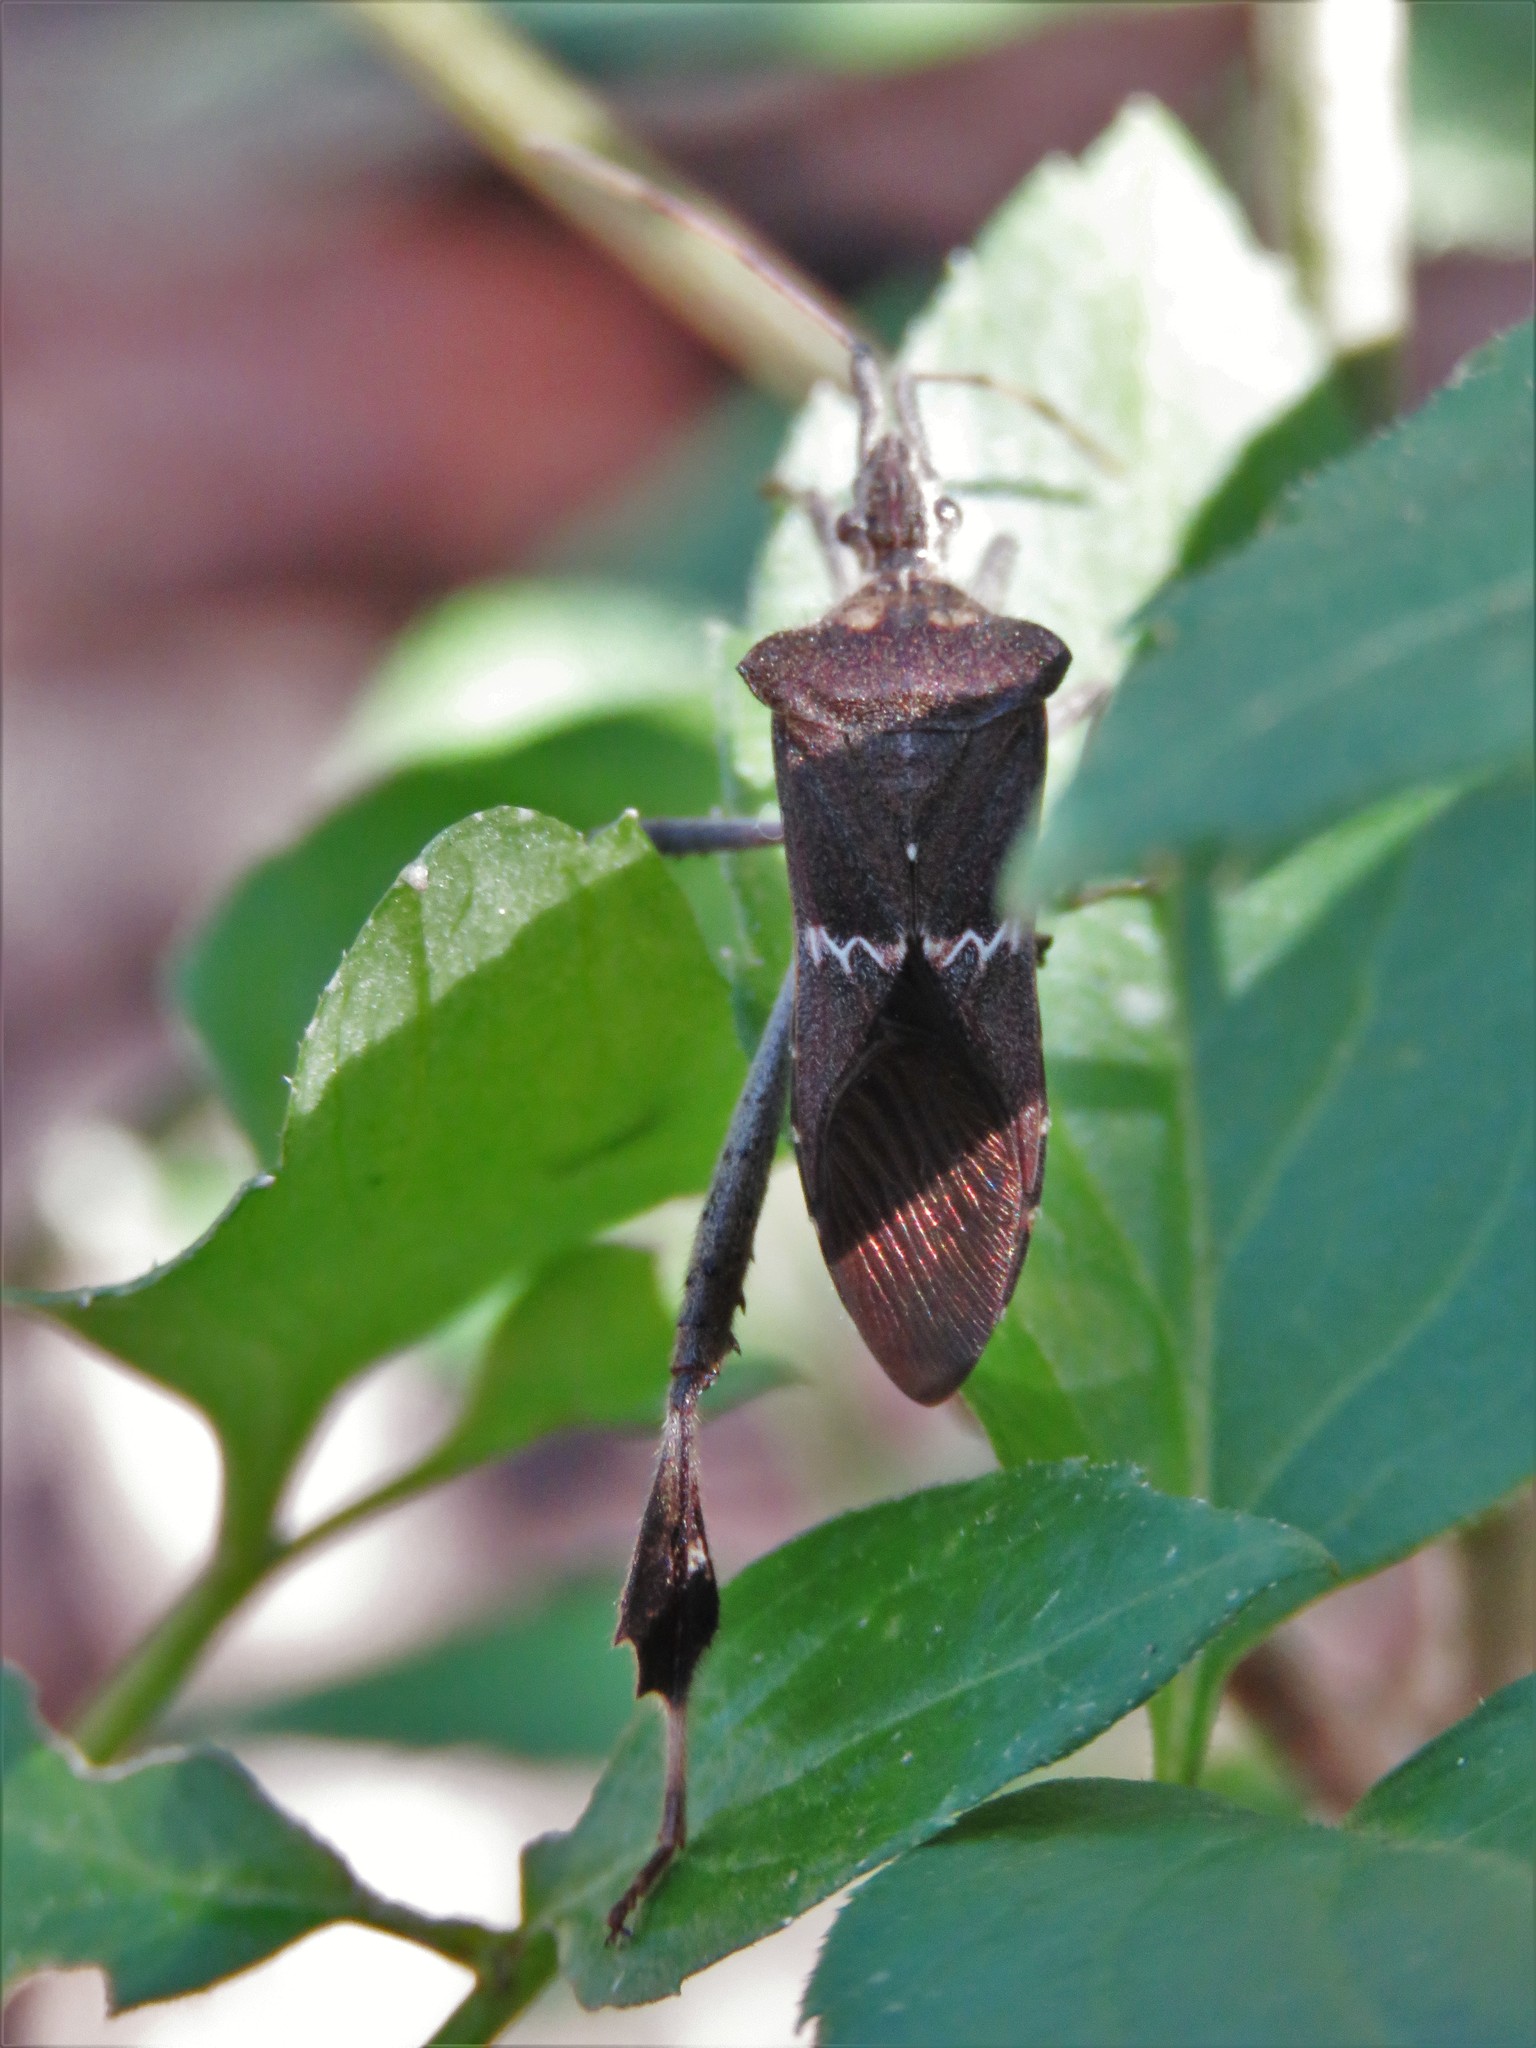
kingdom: Animalia
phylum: Arthropoda
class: Insecta
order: Hemiptera
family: Coreidae
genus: Leptoglossus
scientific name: Leptoglossus zonatus
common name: Large-legged bug
